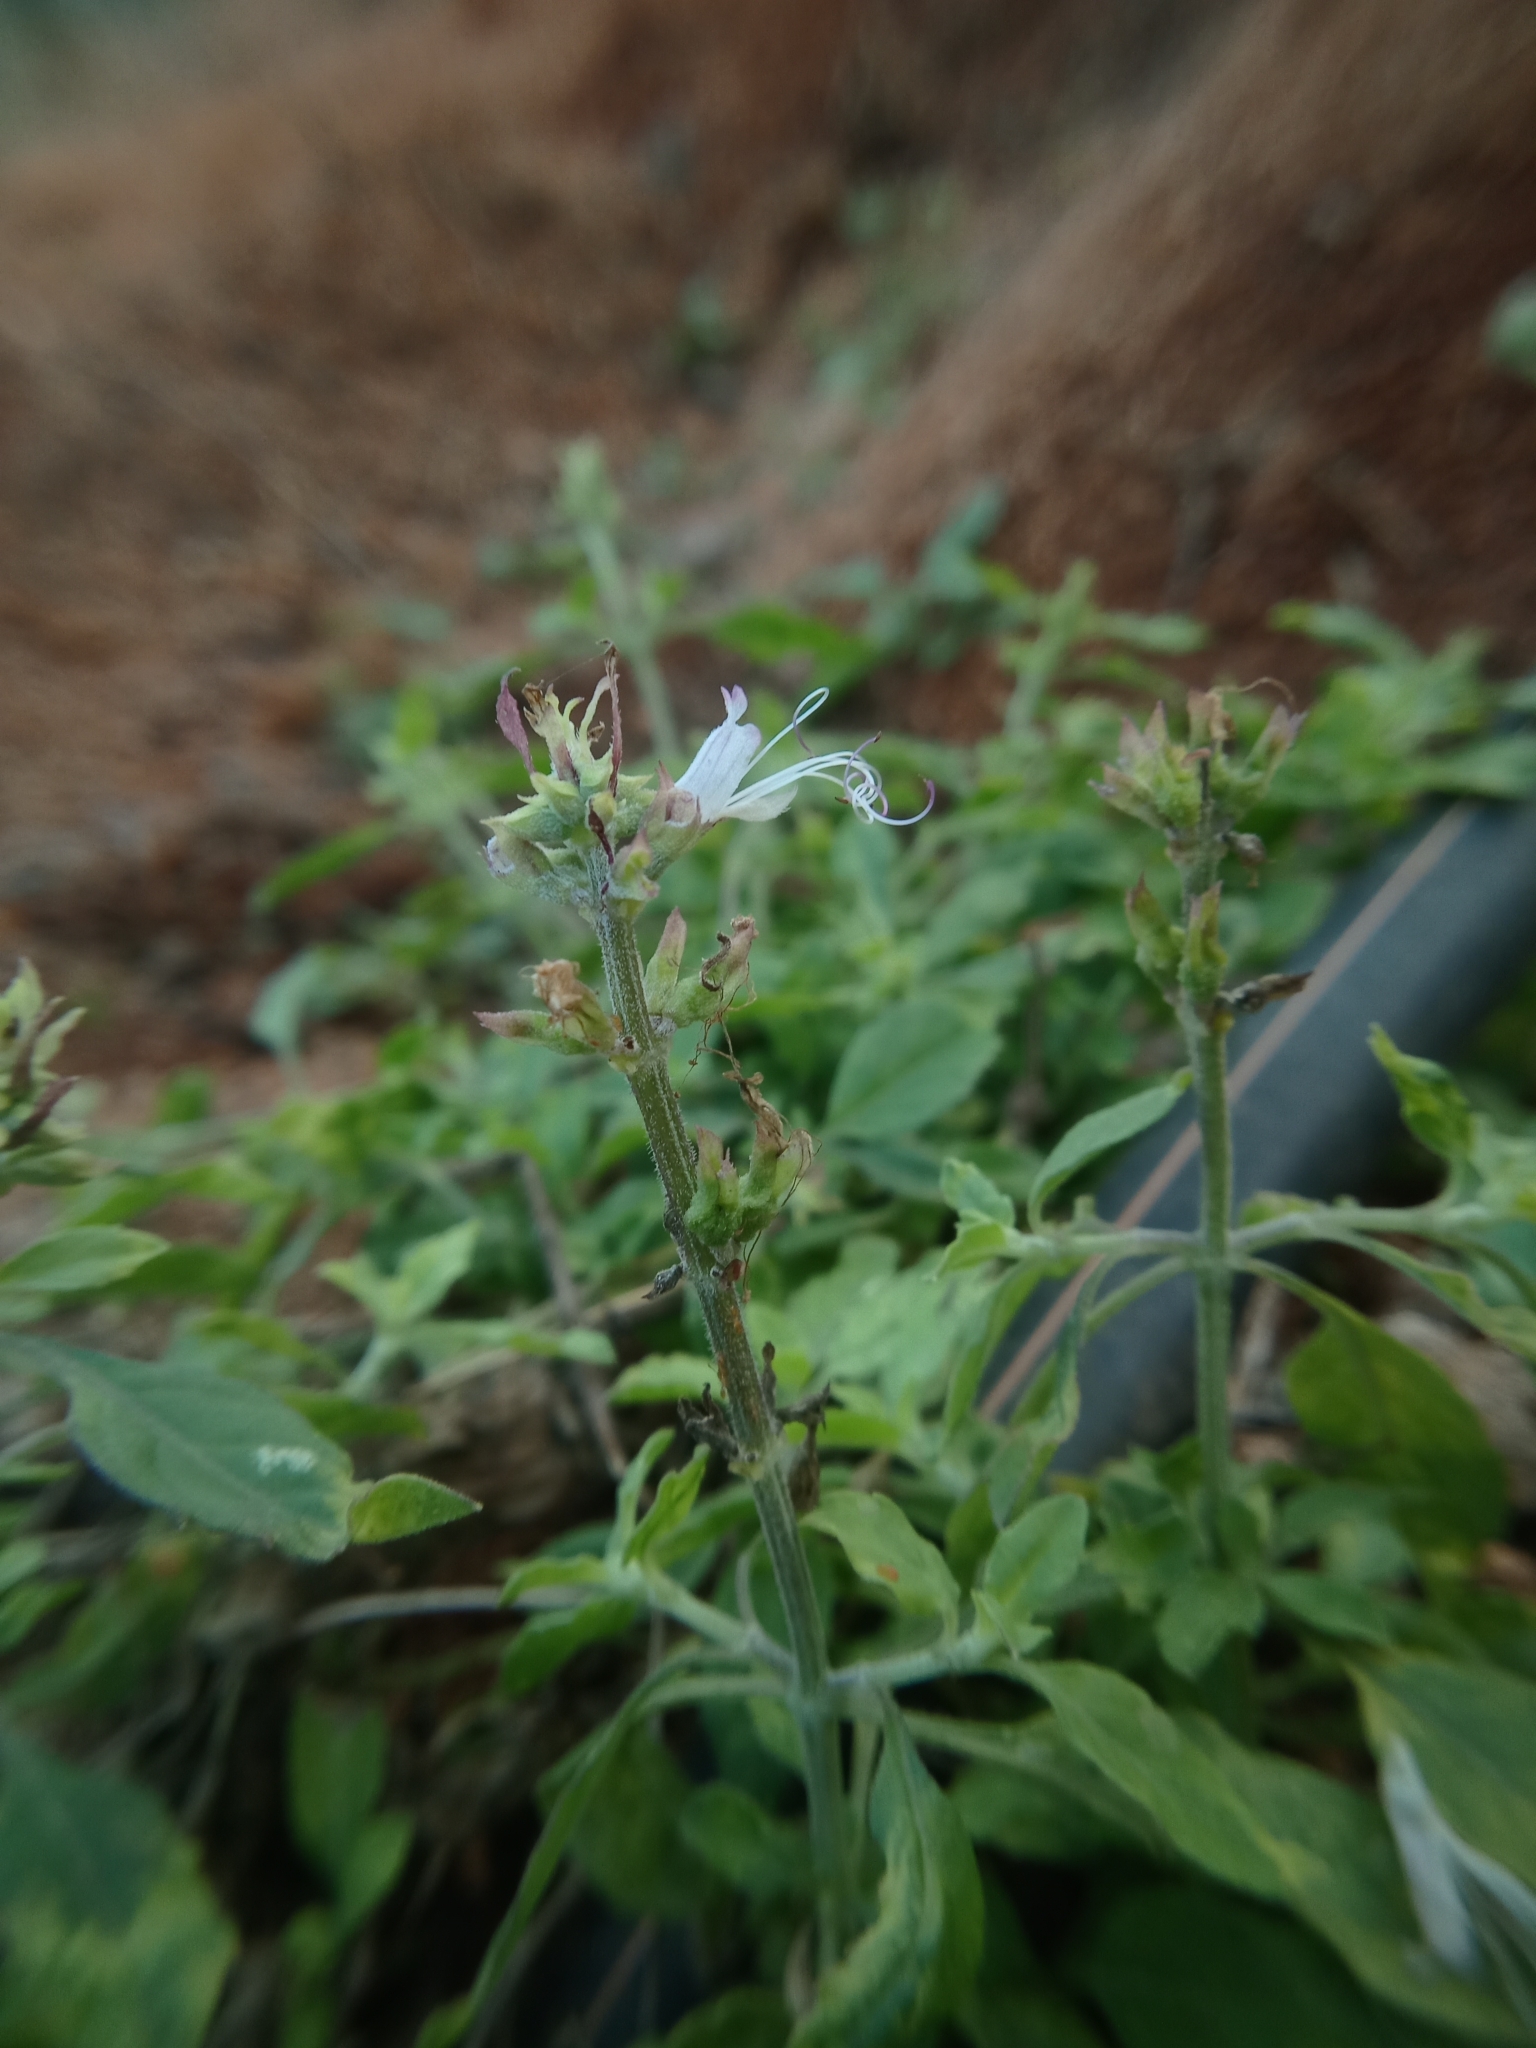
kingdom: Plantae
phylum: Tracheophyta
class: Magnoliopsida
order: Lamiales
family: Lamiaceae
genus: Ocimum
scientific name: Ocimum filamentosum
